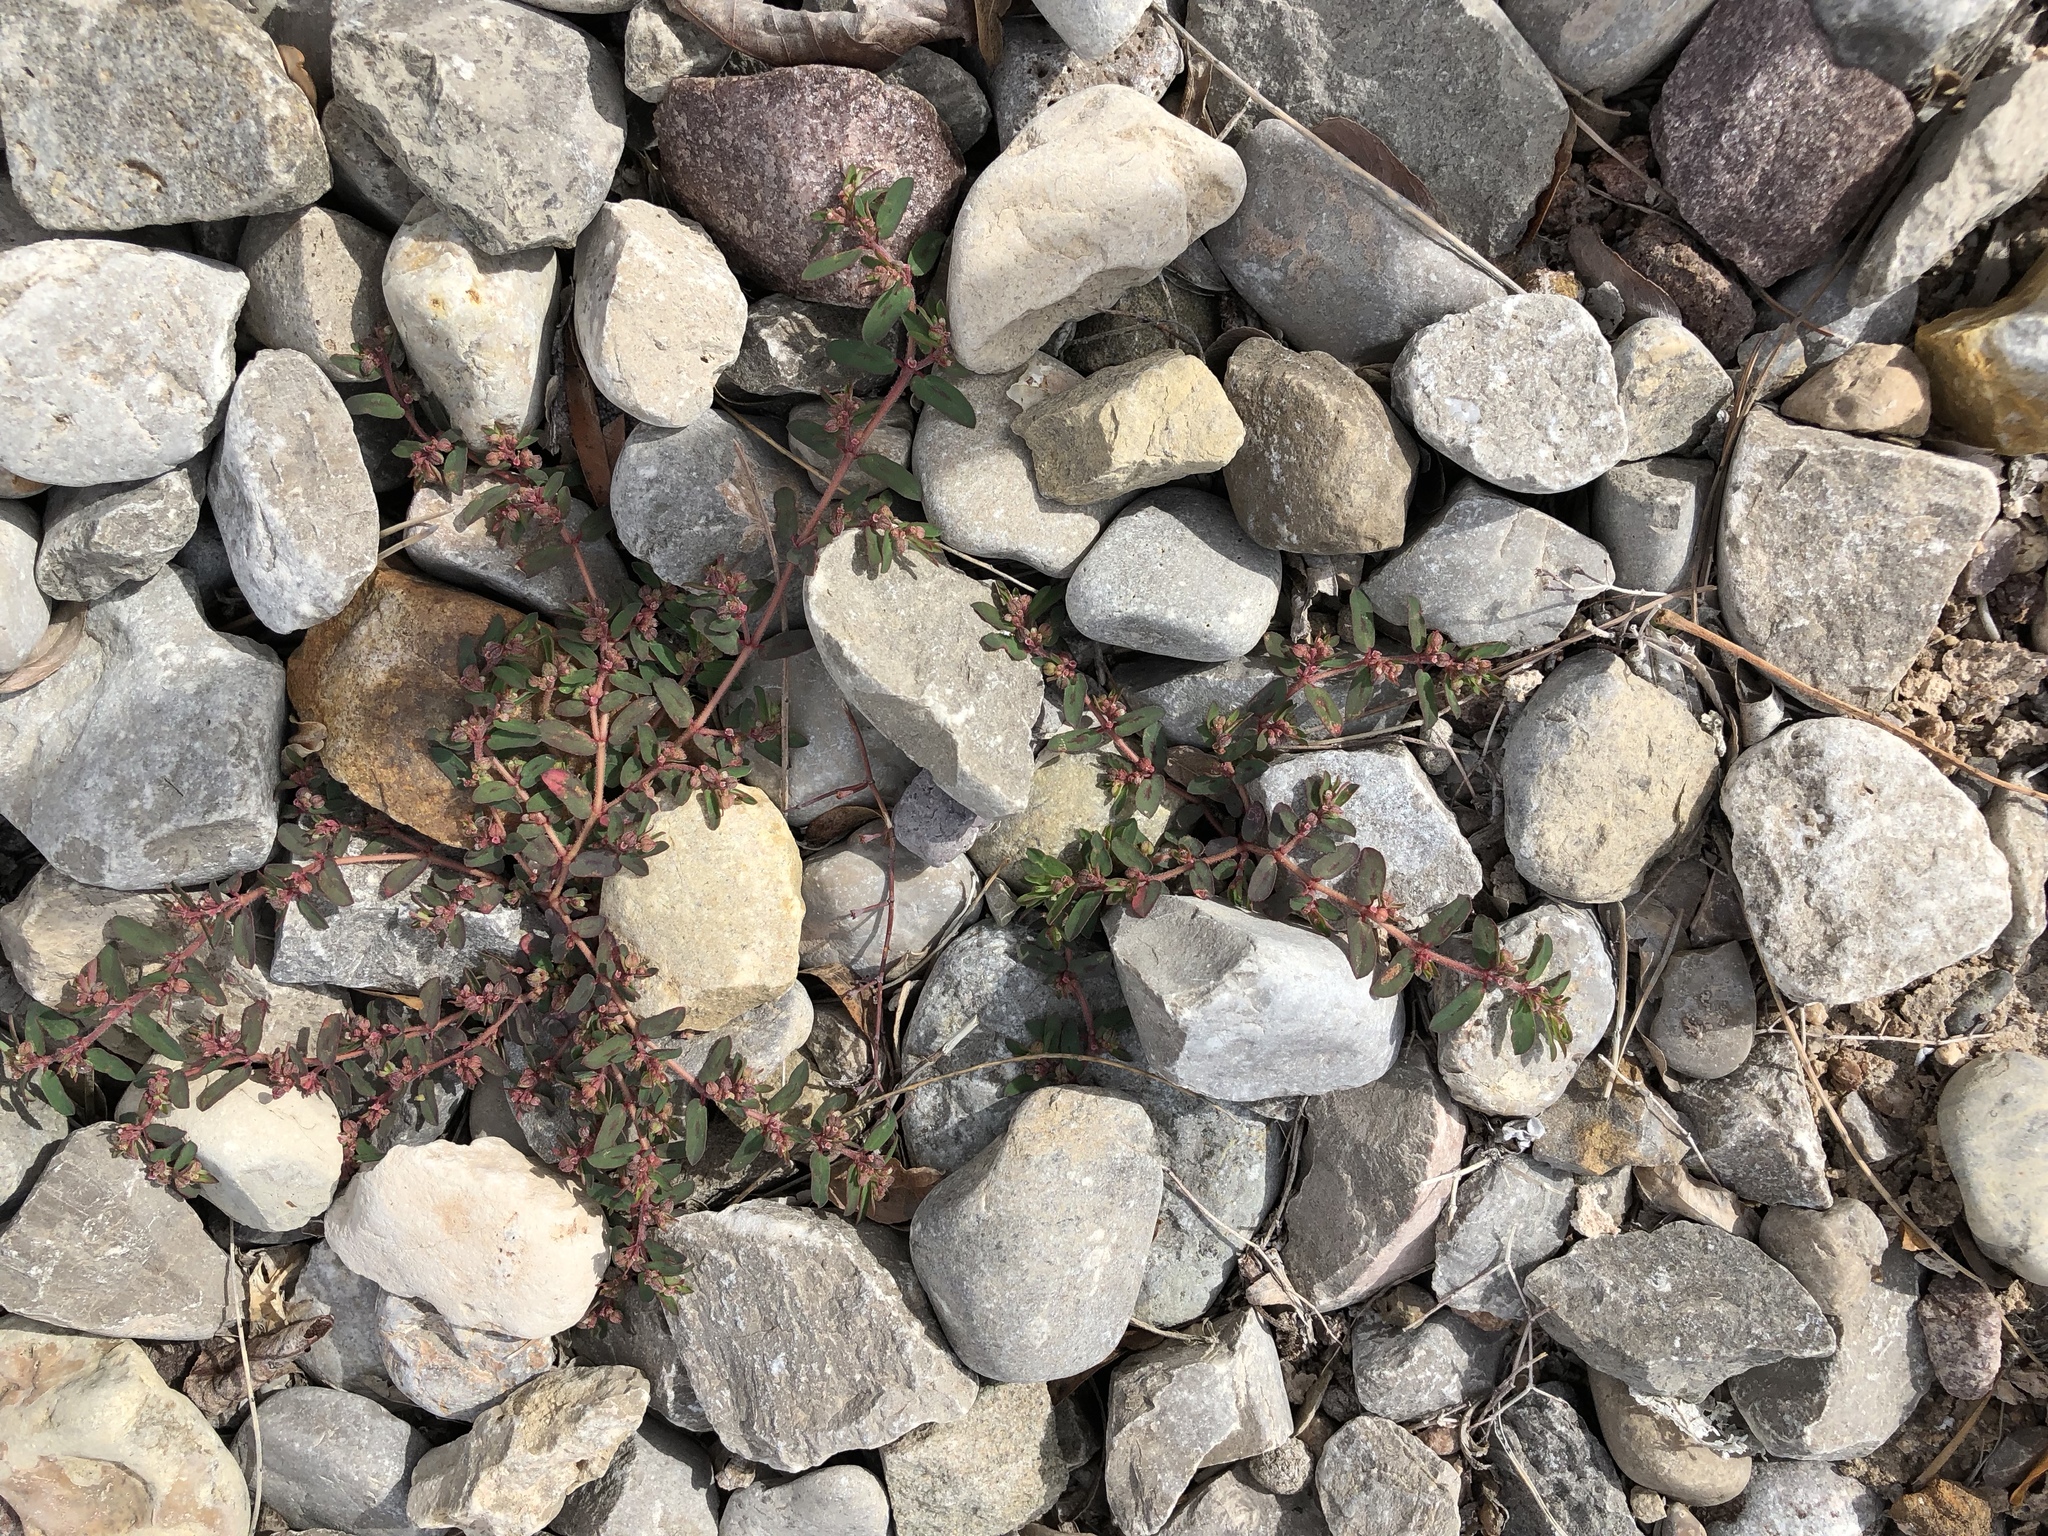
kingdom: Plantae
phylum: Tracheophyta
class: Magnoliopsida
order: Malpighiales
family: Euphorbiaceae
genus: Euphorbia
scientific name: Euphorbia maculata
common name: Spotted spurge
